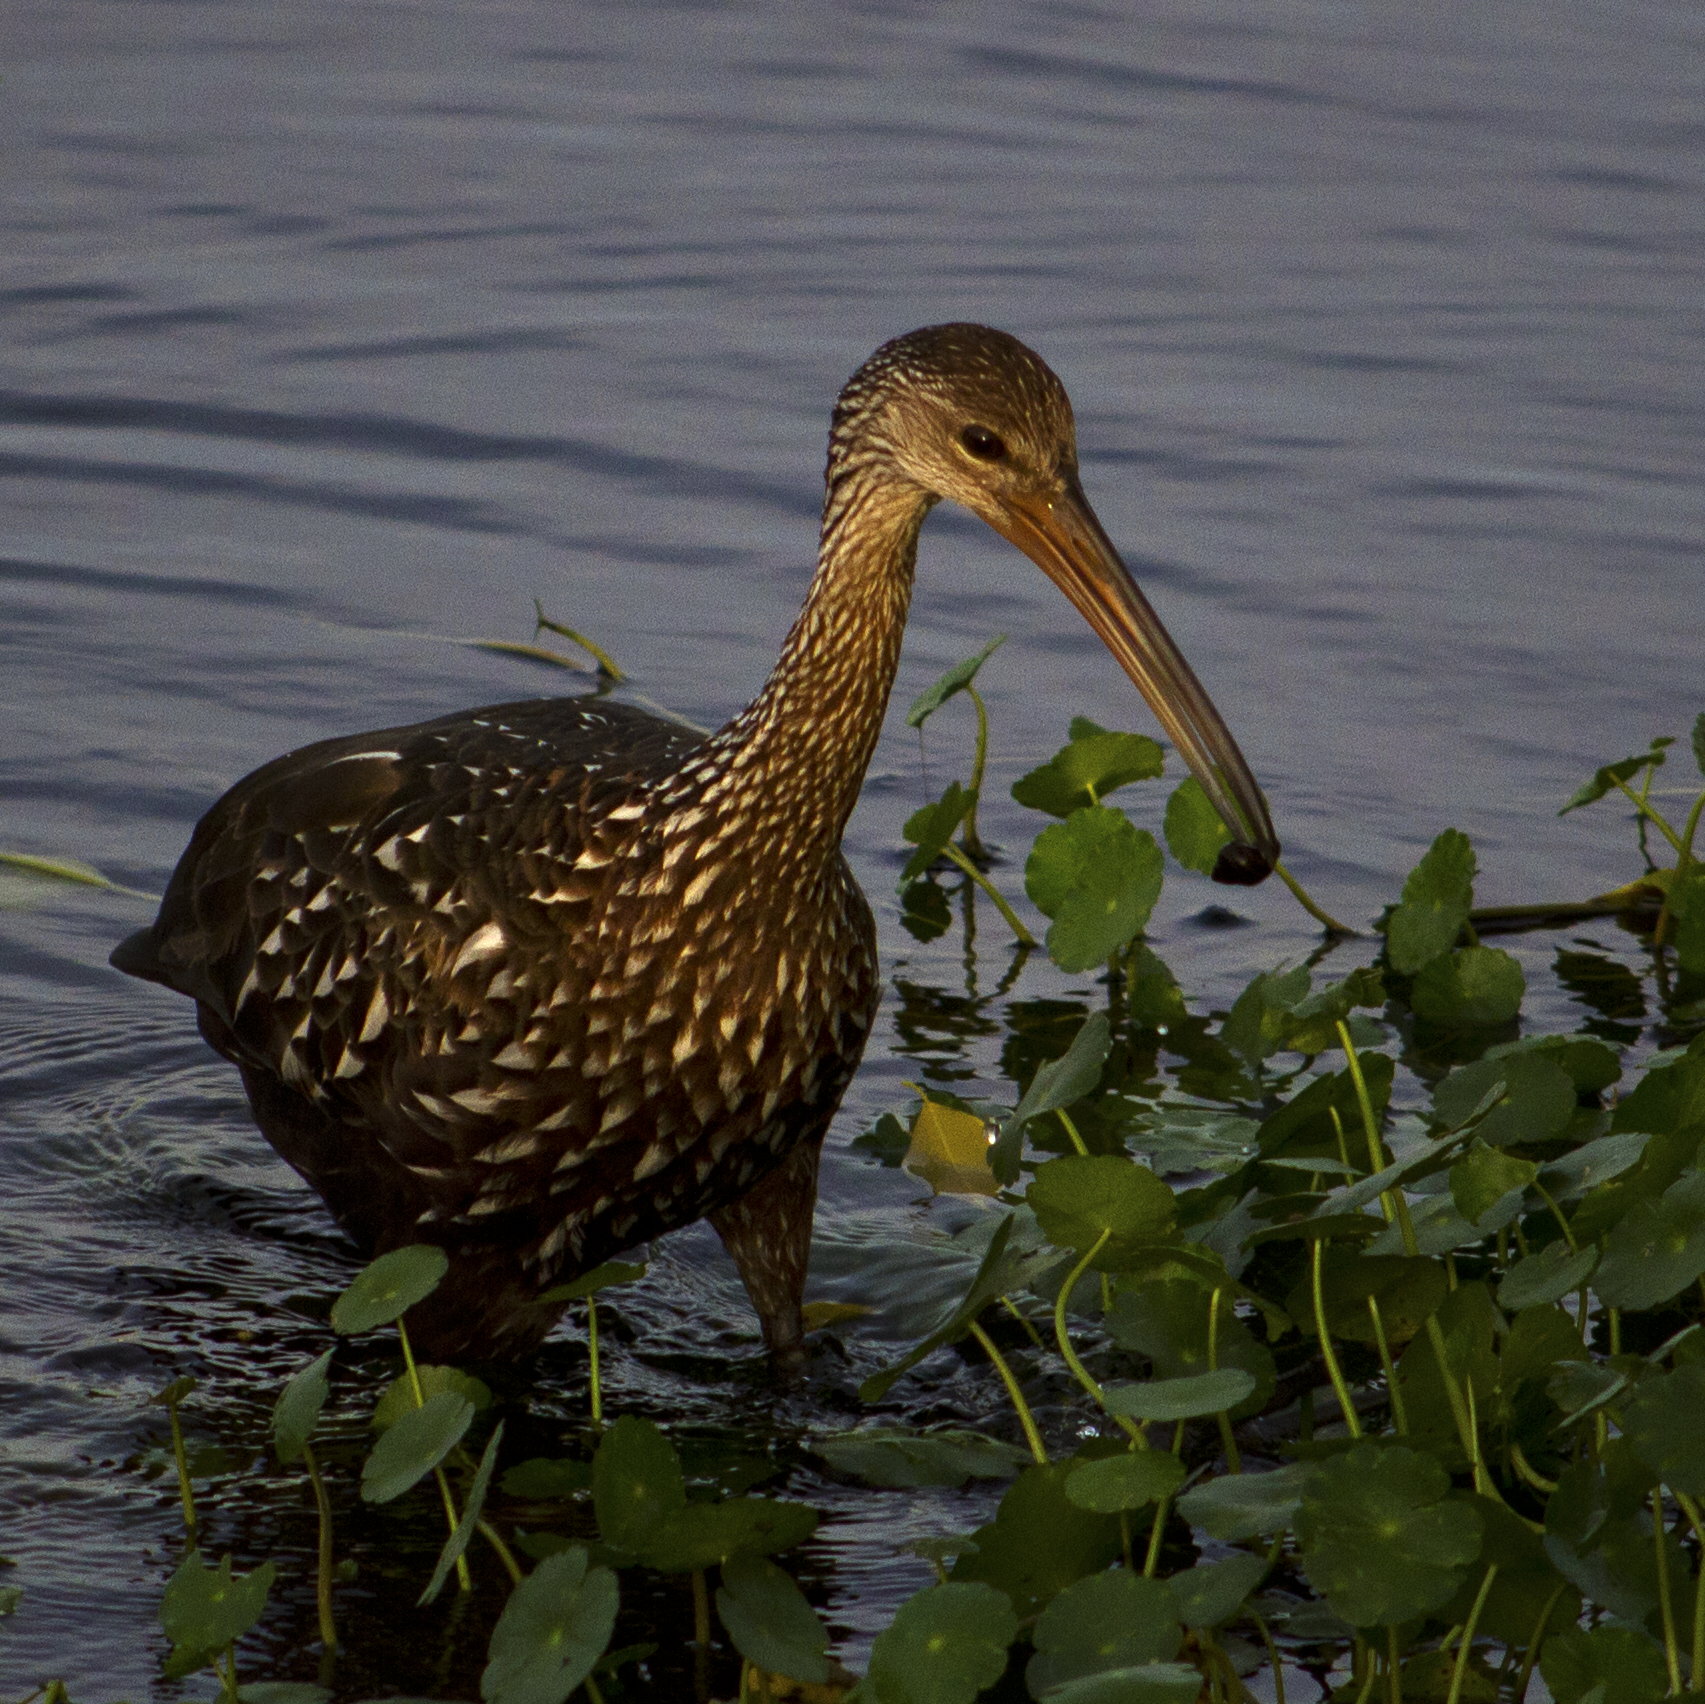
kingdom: Animalia
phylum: Chordata
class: Aves
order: Gruiformes
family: Aramidae
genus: Aramus
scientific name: Aramus guarauna
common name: Limpkin
